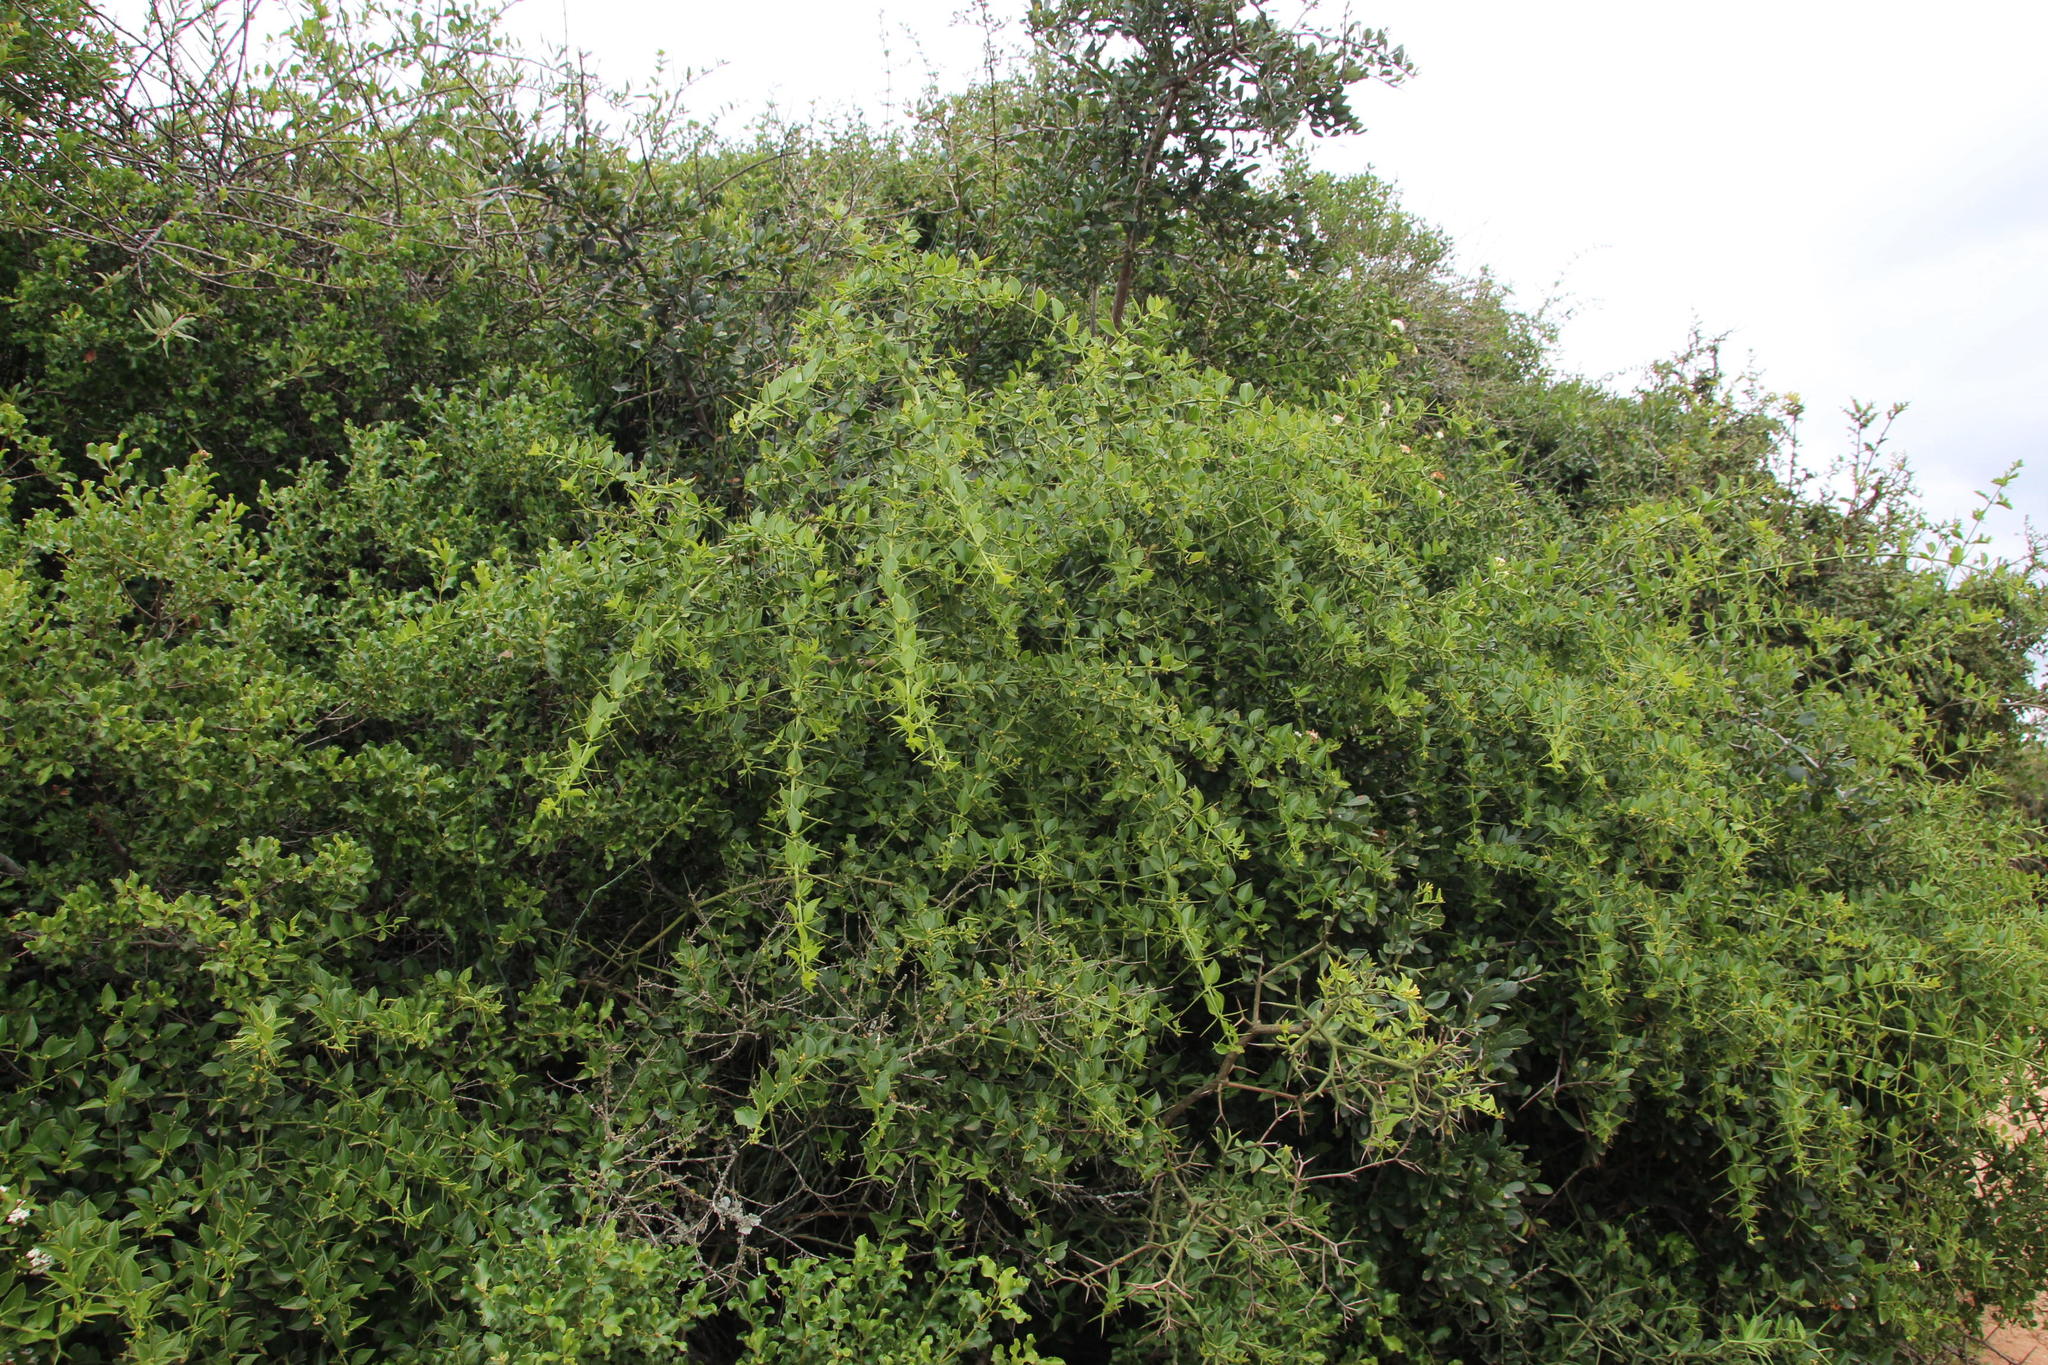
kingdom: Plantae
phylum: Tracheophyta
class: Magnoliopsida
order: Brassicales
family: Salvadoraceae
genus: Azima
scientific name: Azima tetracantha
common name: Needle bush
